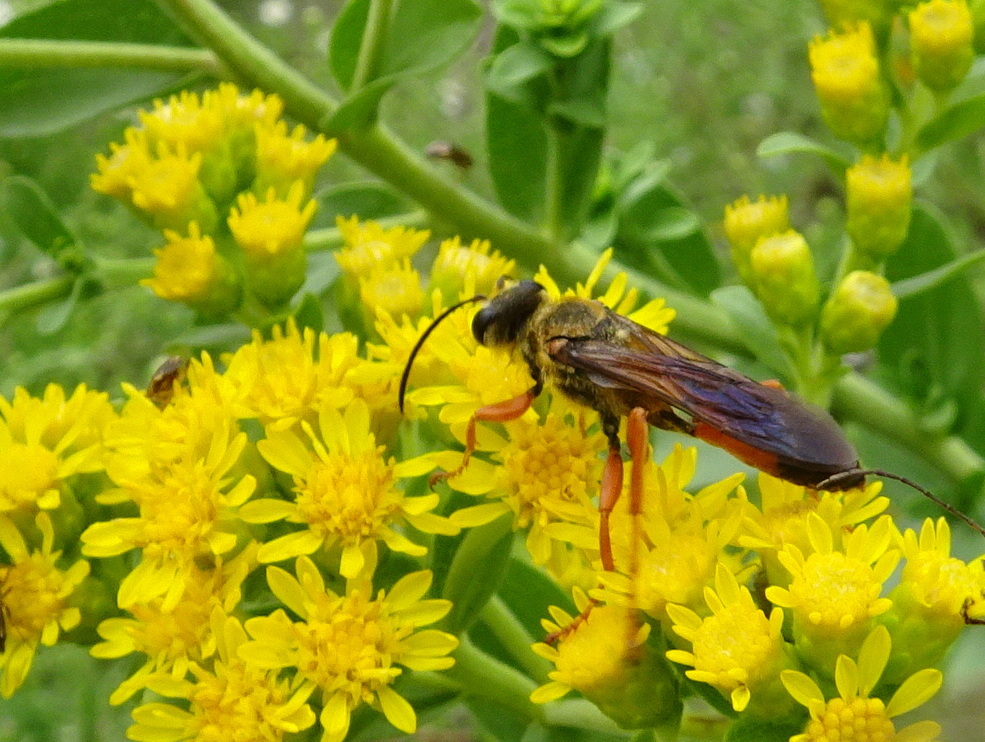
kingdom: Animalia
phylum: Arthropoda
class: Insecta
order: Hymenoptera
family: Sphecidae
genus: Sphex
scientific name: Sphex ichneumoneus
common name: Great golden digger wasp
